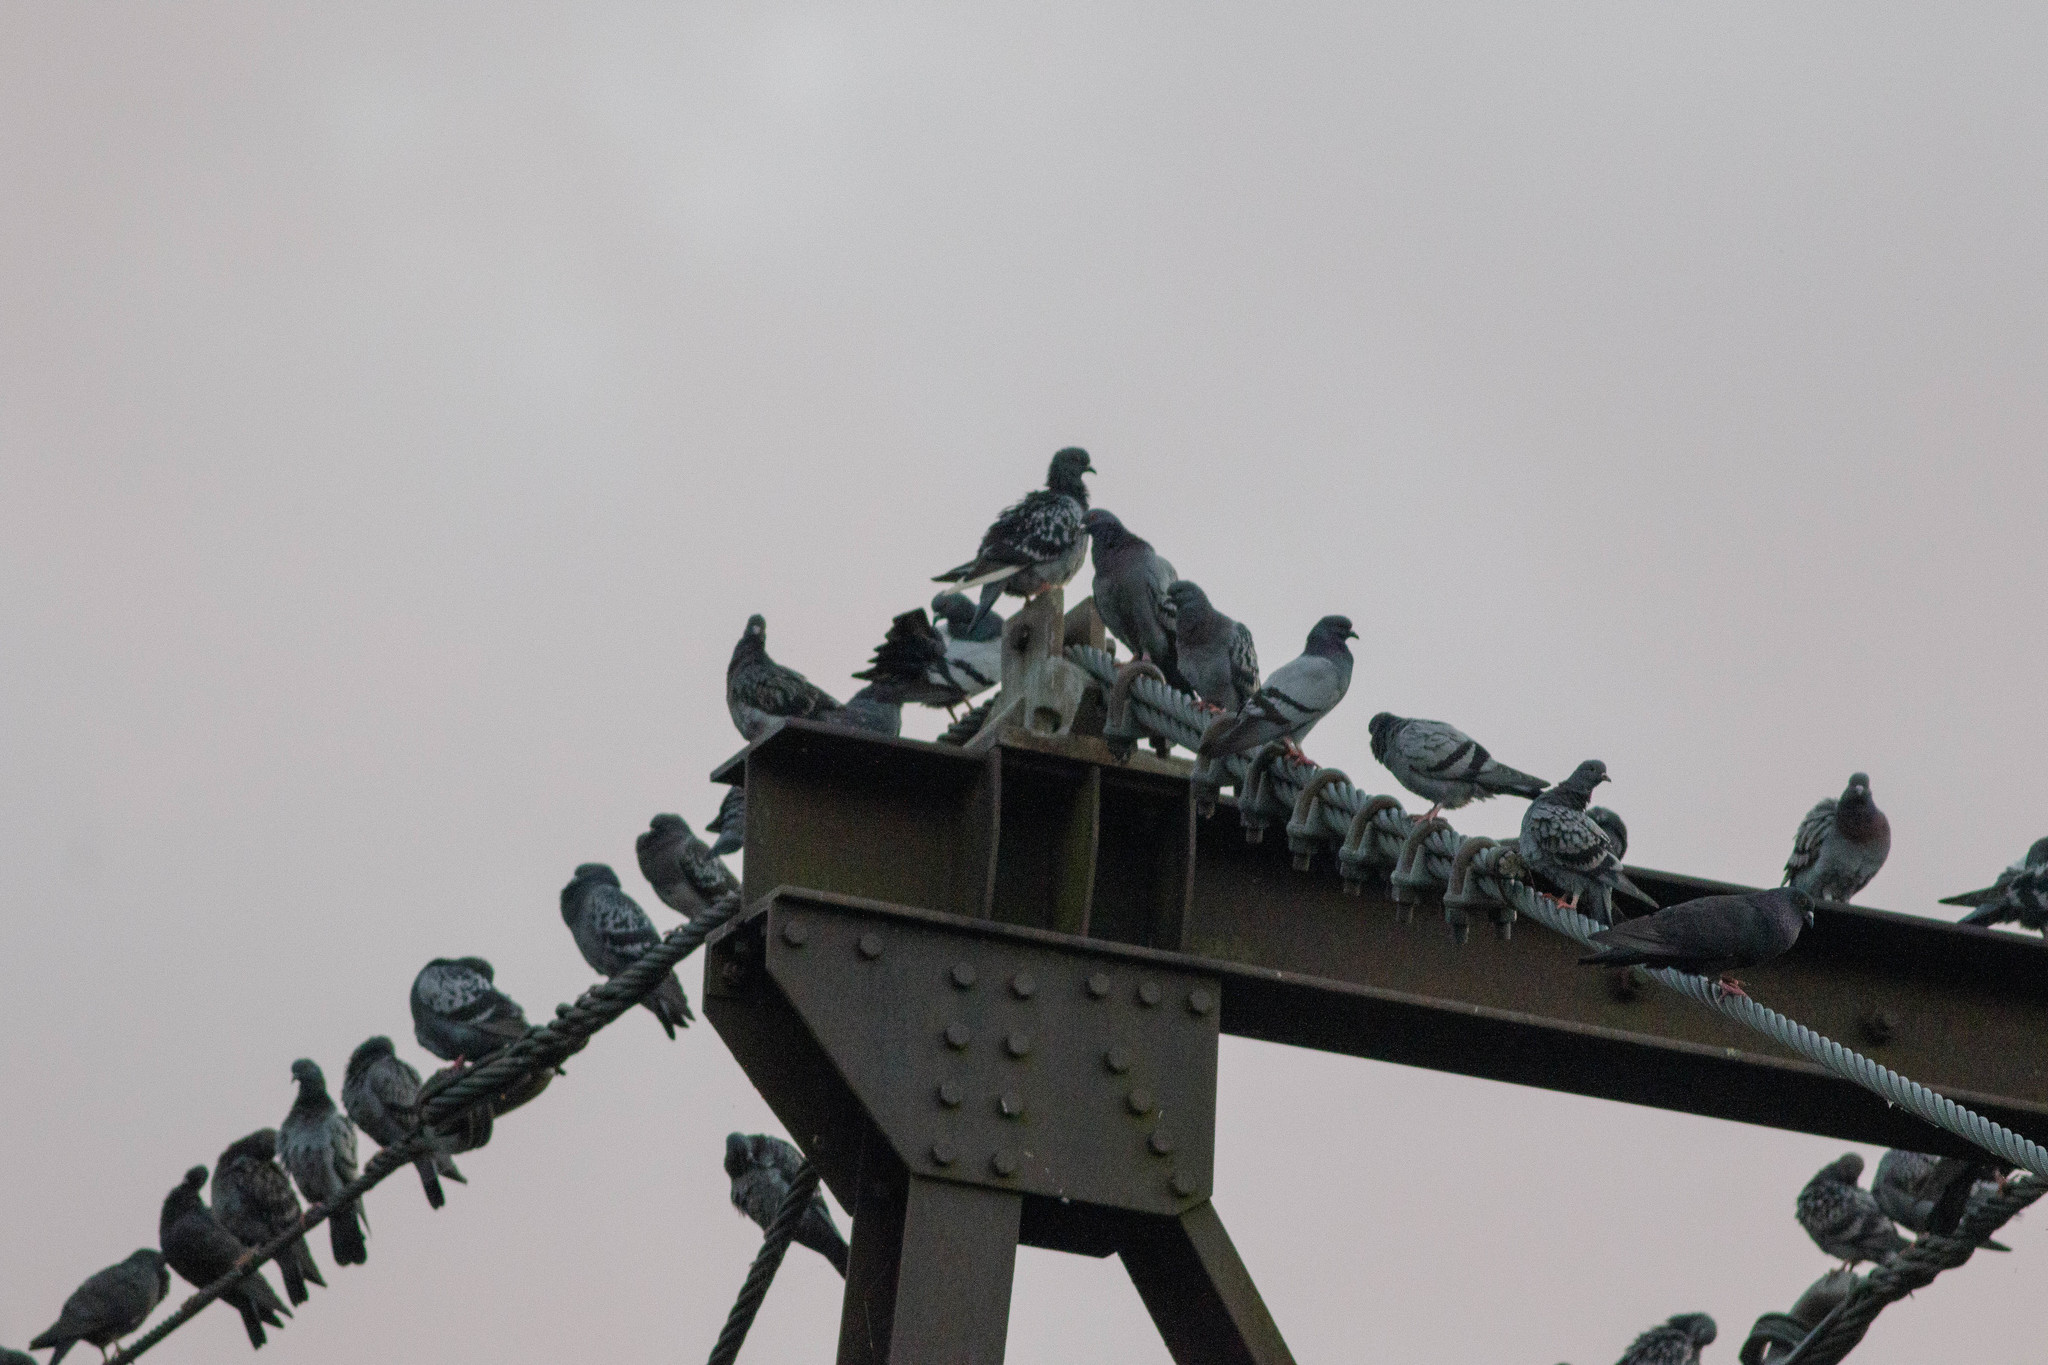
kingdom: Animalia
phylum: Chordata
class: Aves
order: Columbiformes
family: Columbidae
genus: Columba
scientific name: Columba livia
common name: Rock pigeon
